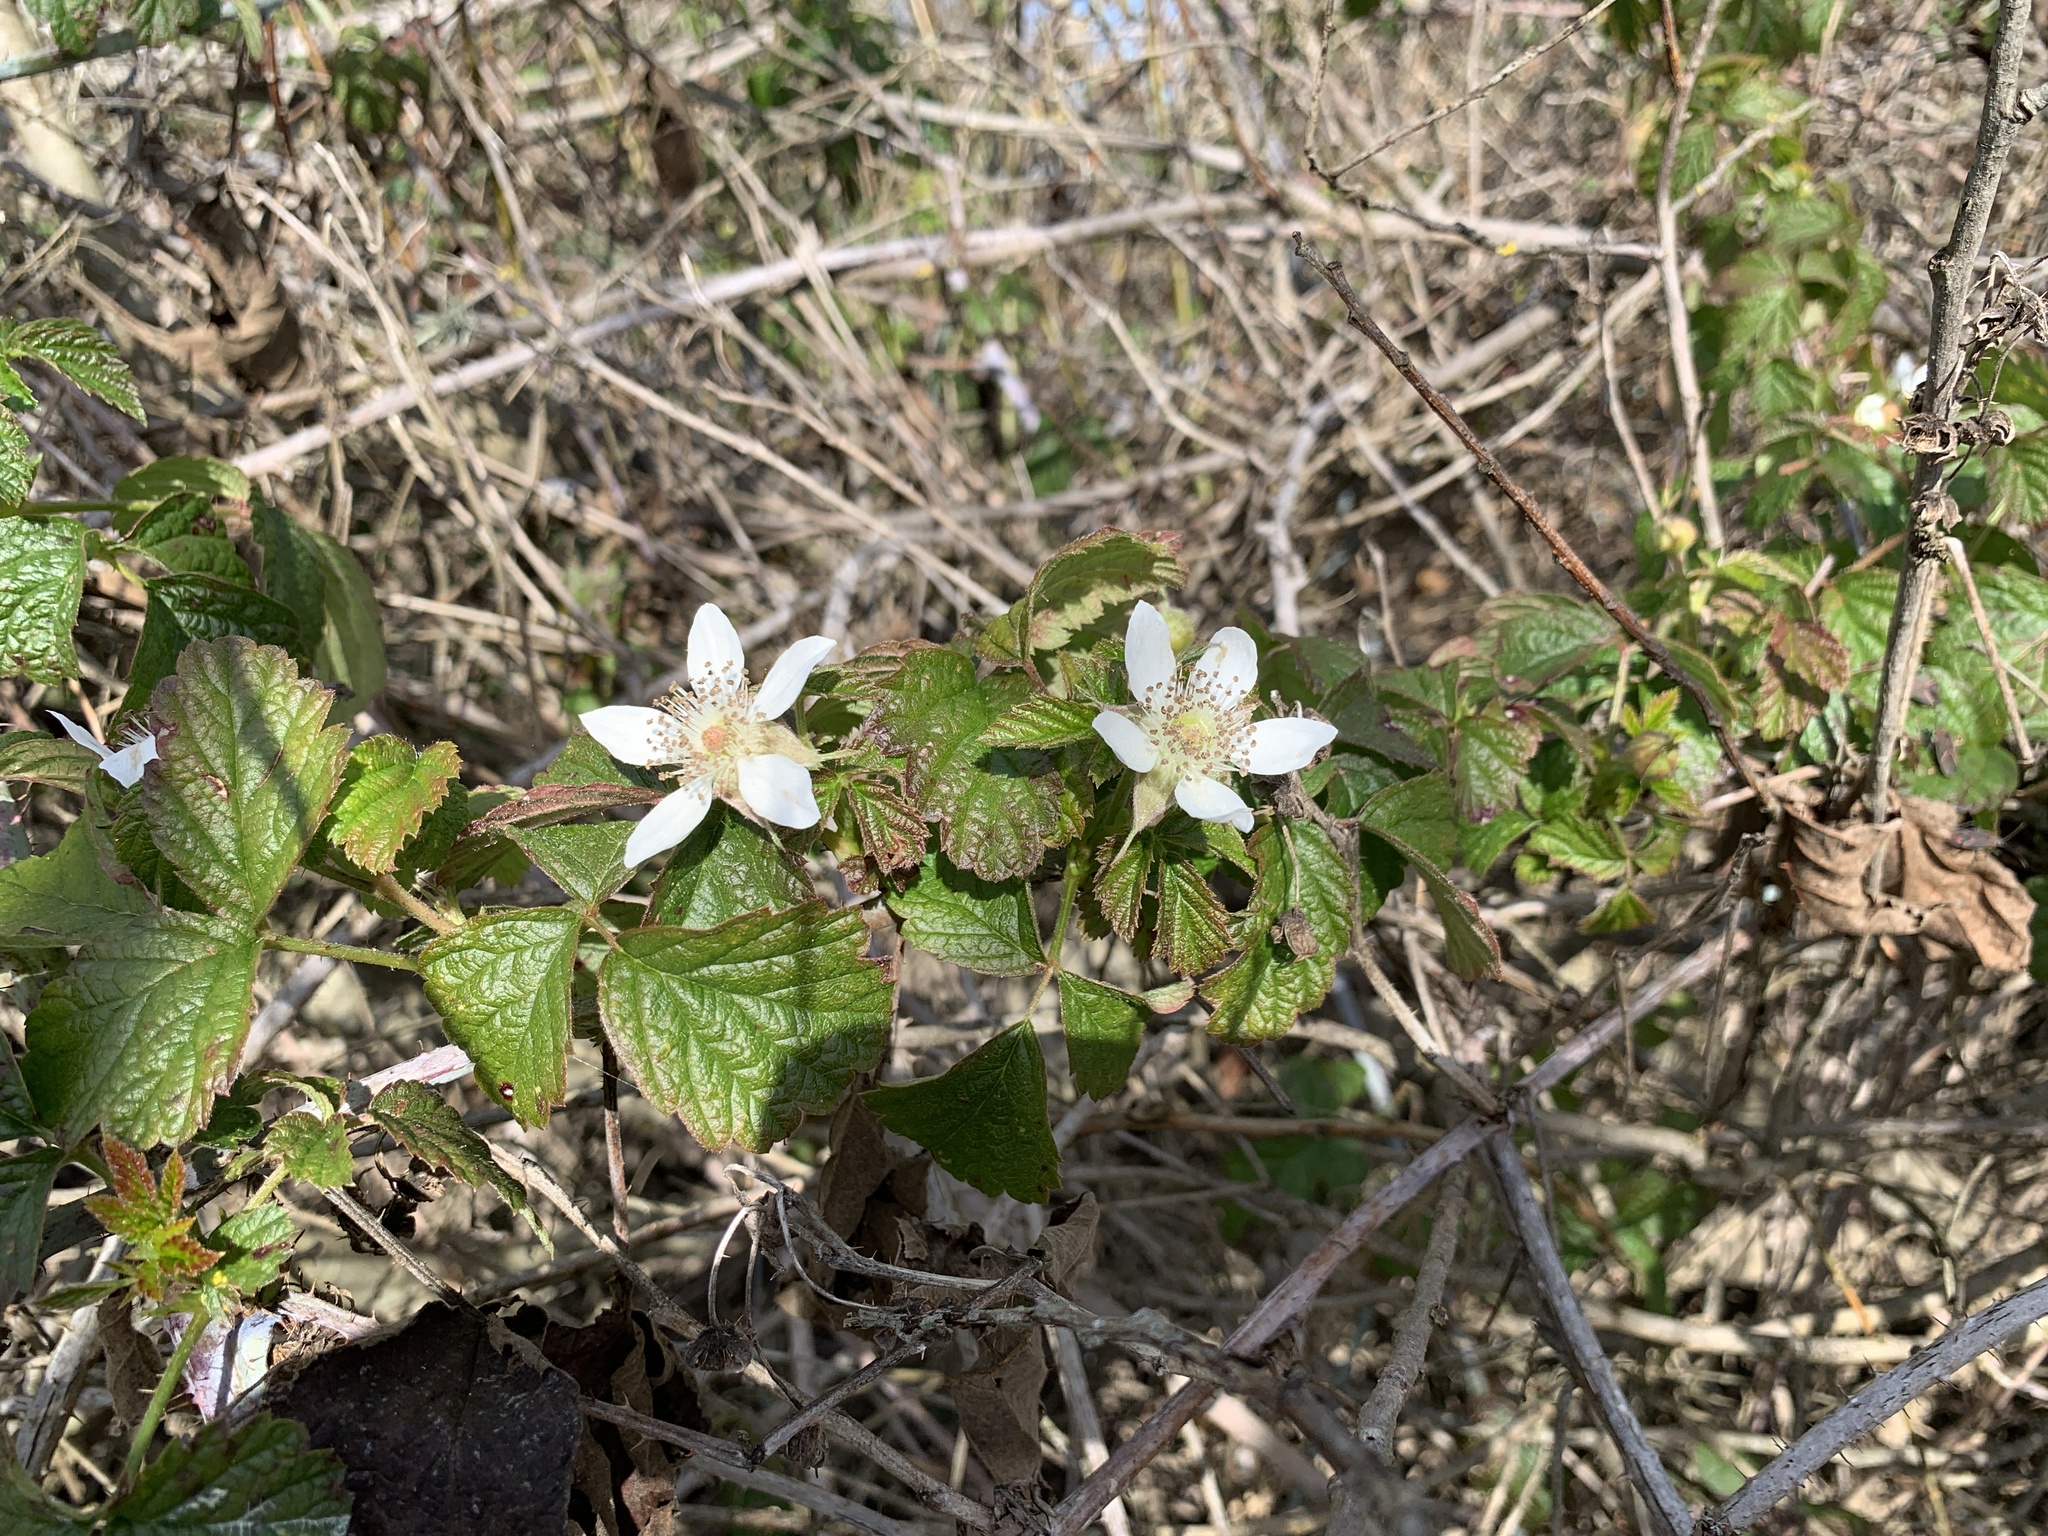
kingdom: Plantae
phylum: Tracheophyta
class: Magnoliopsida
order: Rosales
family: Rosaceae
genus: Rubus
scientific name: Rubus ursinus
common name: Pacific blackberry
